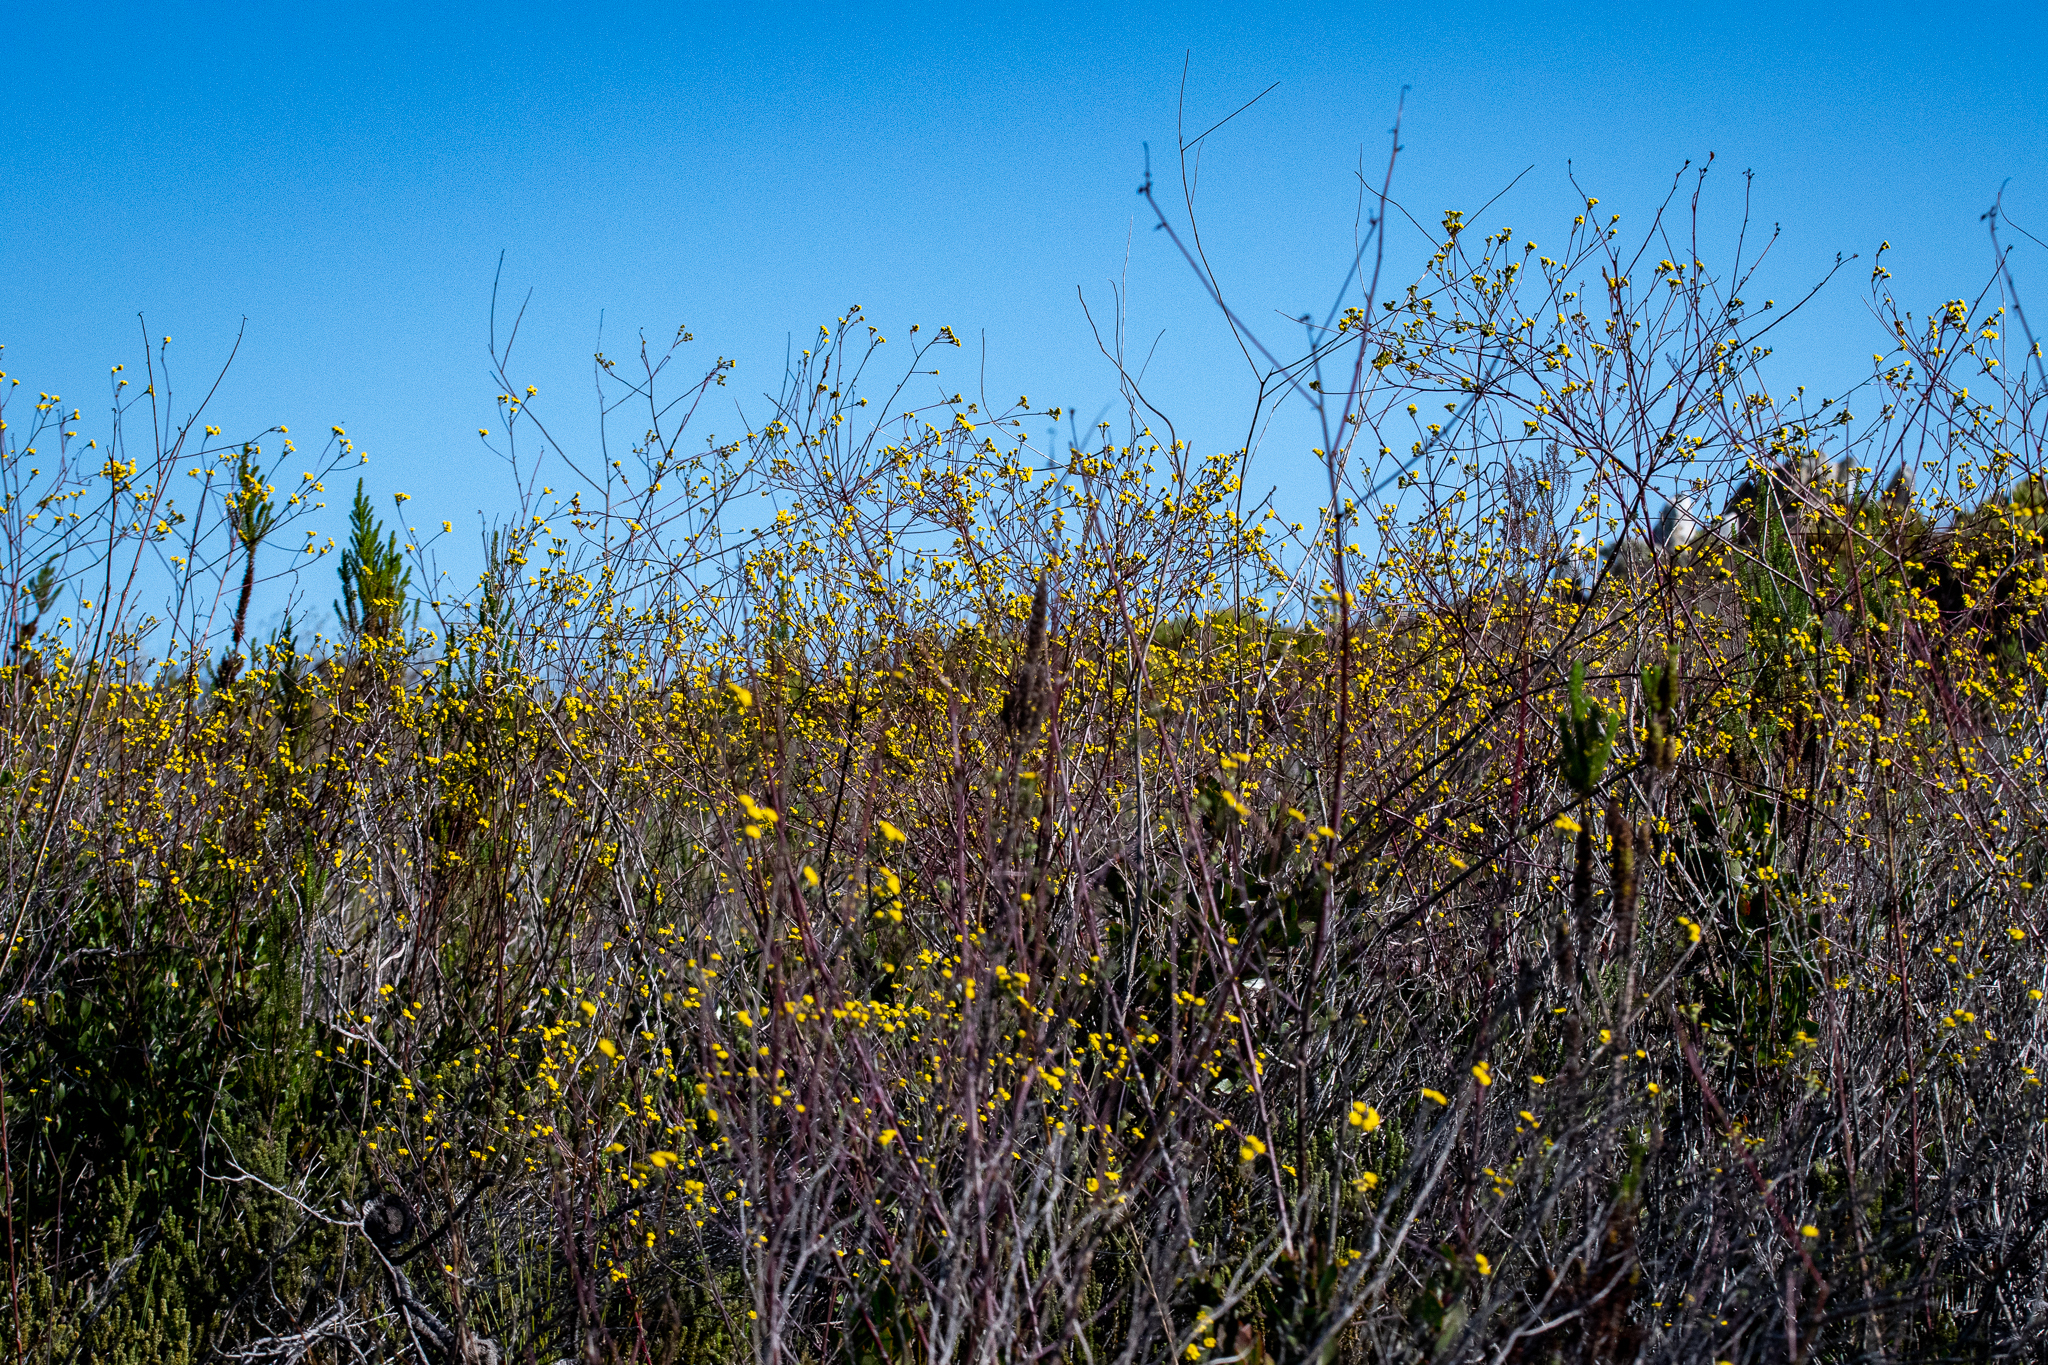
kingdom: Plantae
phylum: Tracheophyta
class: Magnoliopsida
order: Asterales
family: Asteraceae
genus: Othonna
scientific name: Othonna quinquedentata
